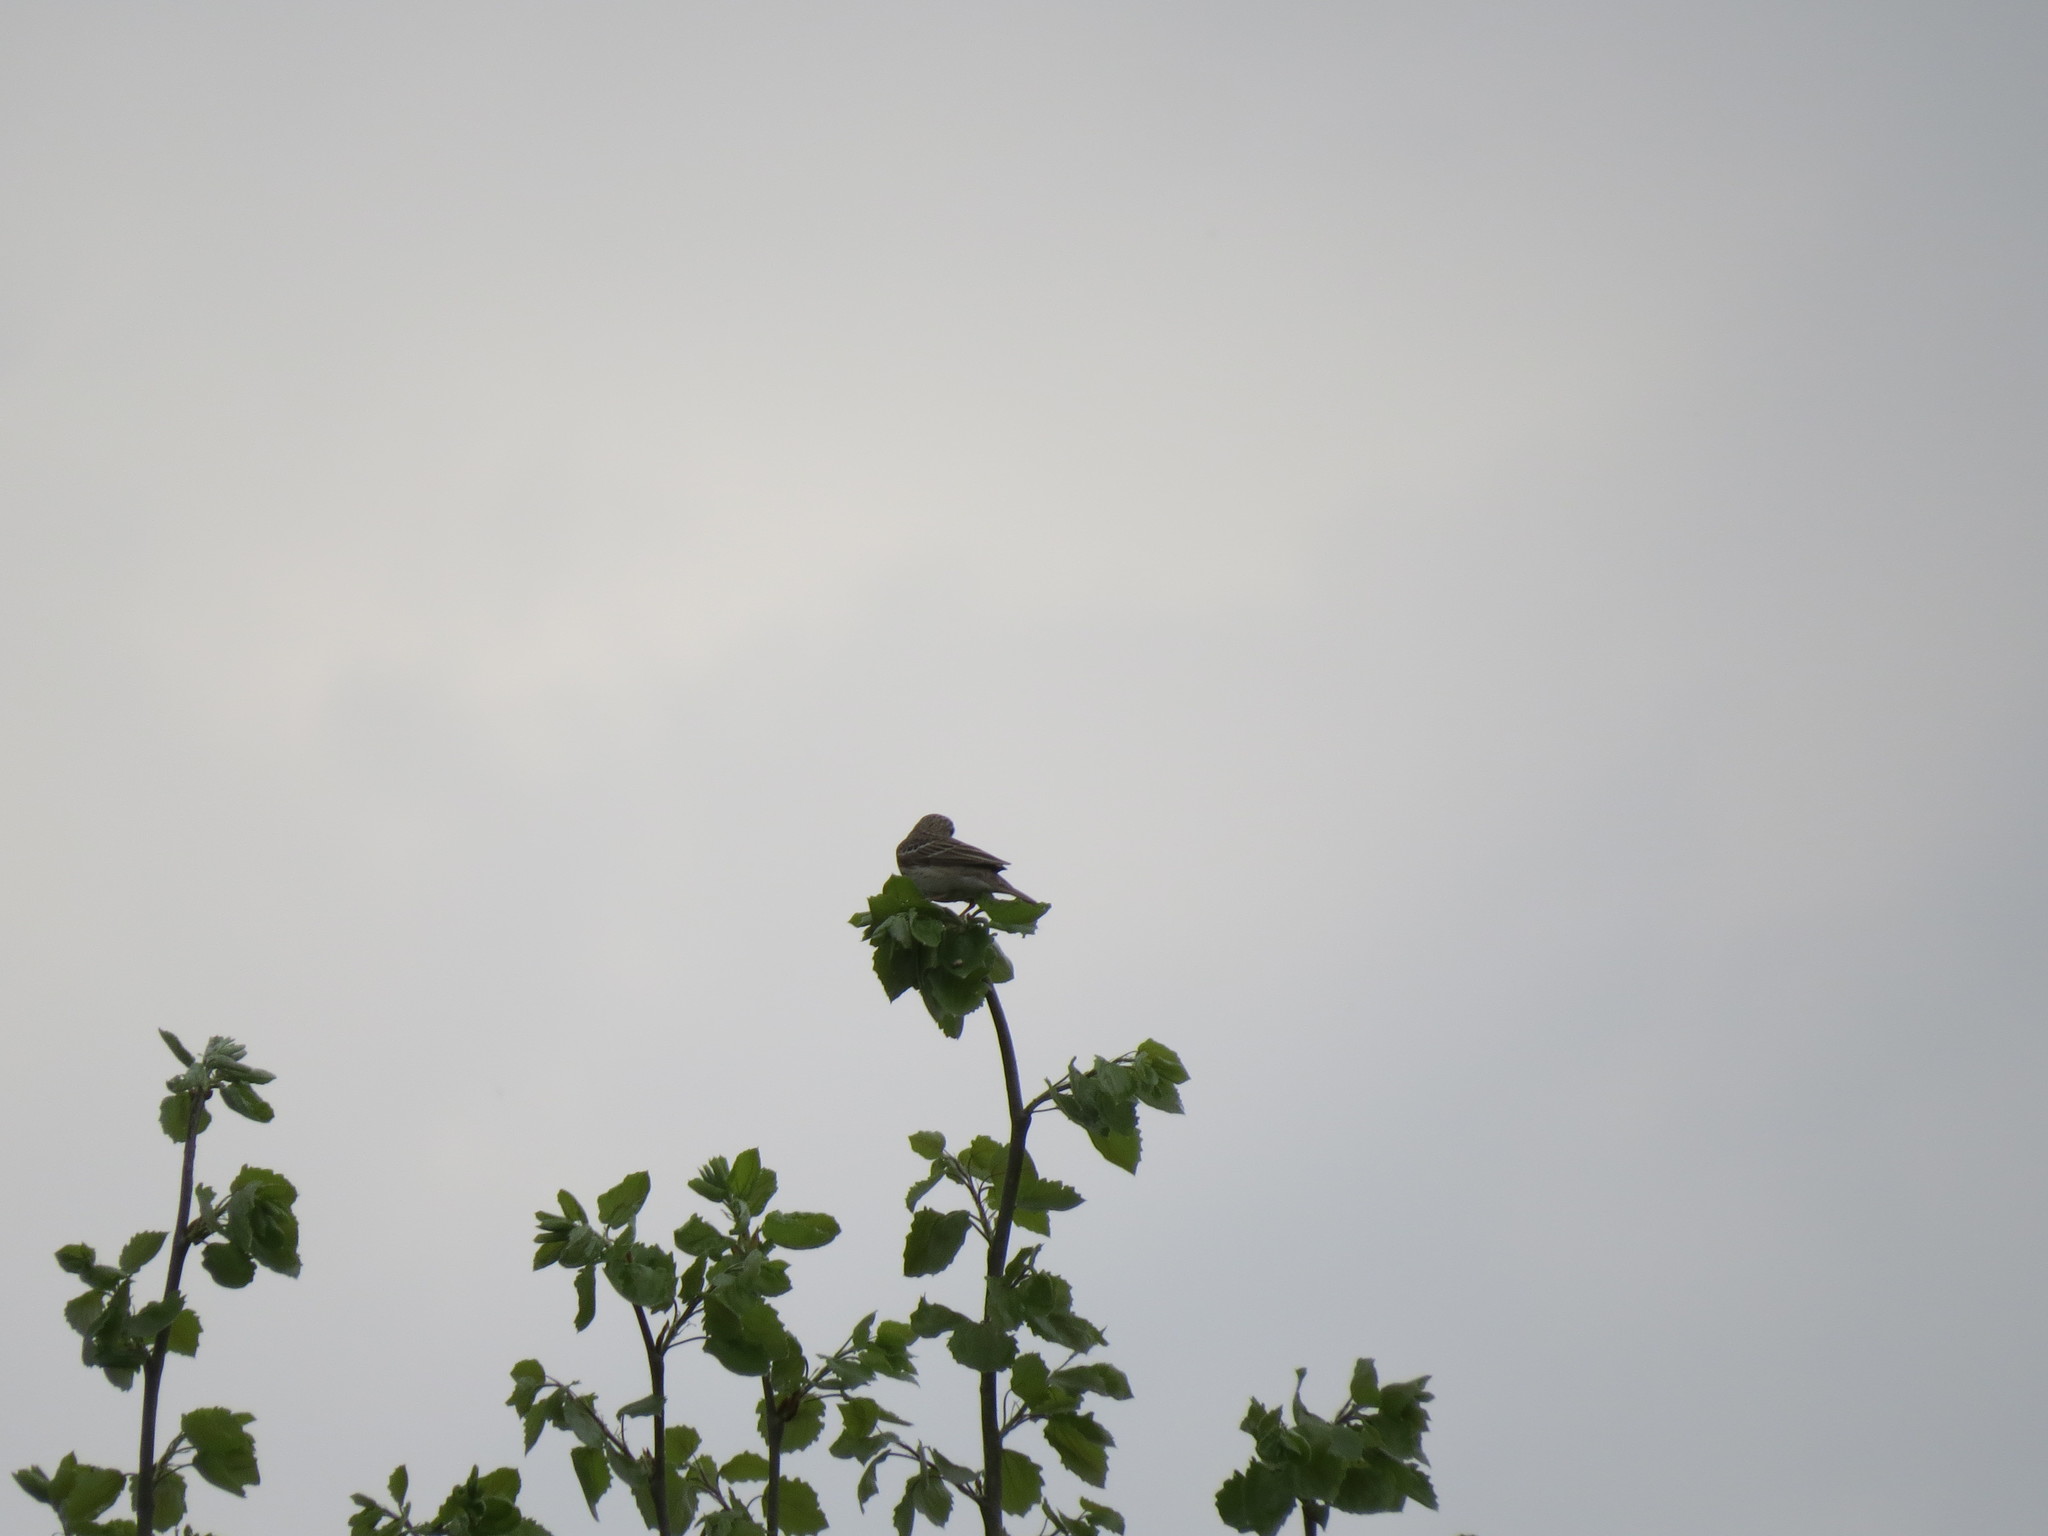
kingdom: Animalia
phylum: Chordata
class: Aves
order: Passeriformes
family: Motacillidae
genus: Anthus
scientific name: Anthus trivialis
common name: Tree pipit
